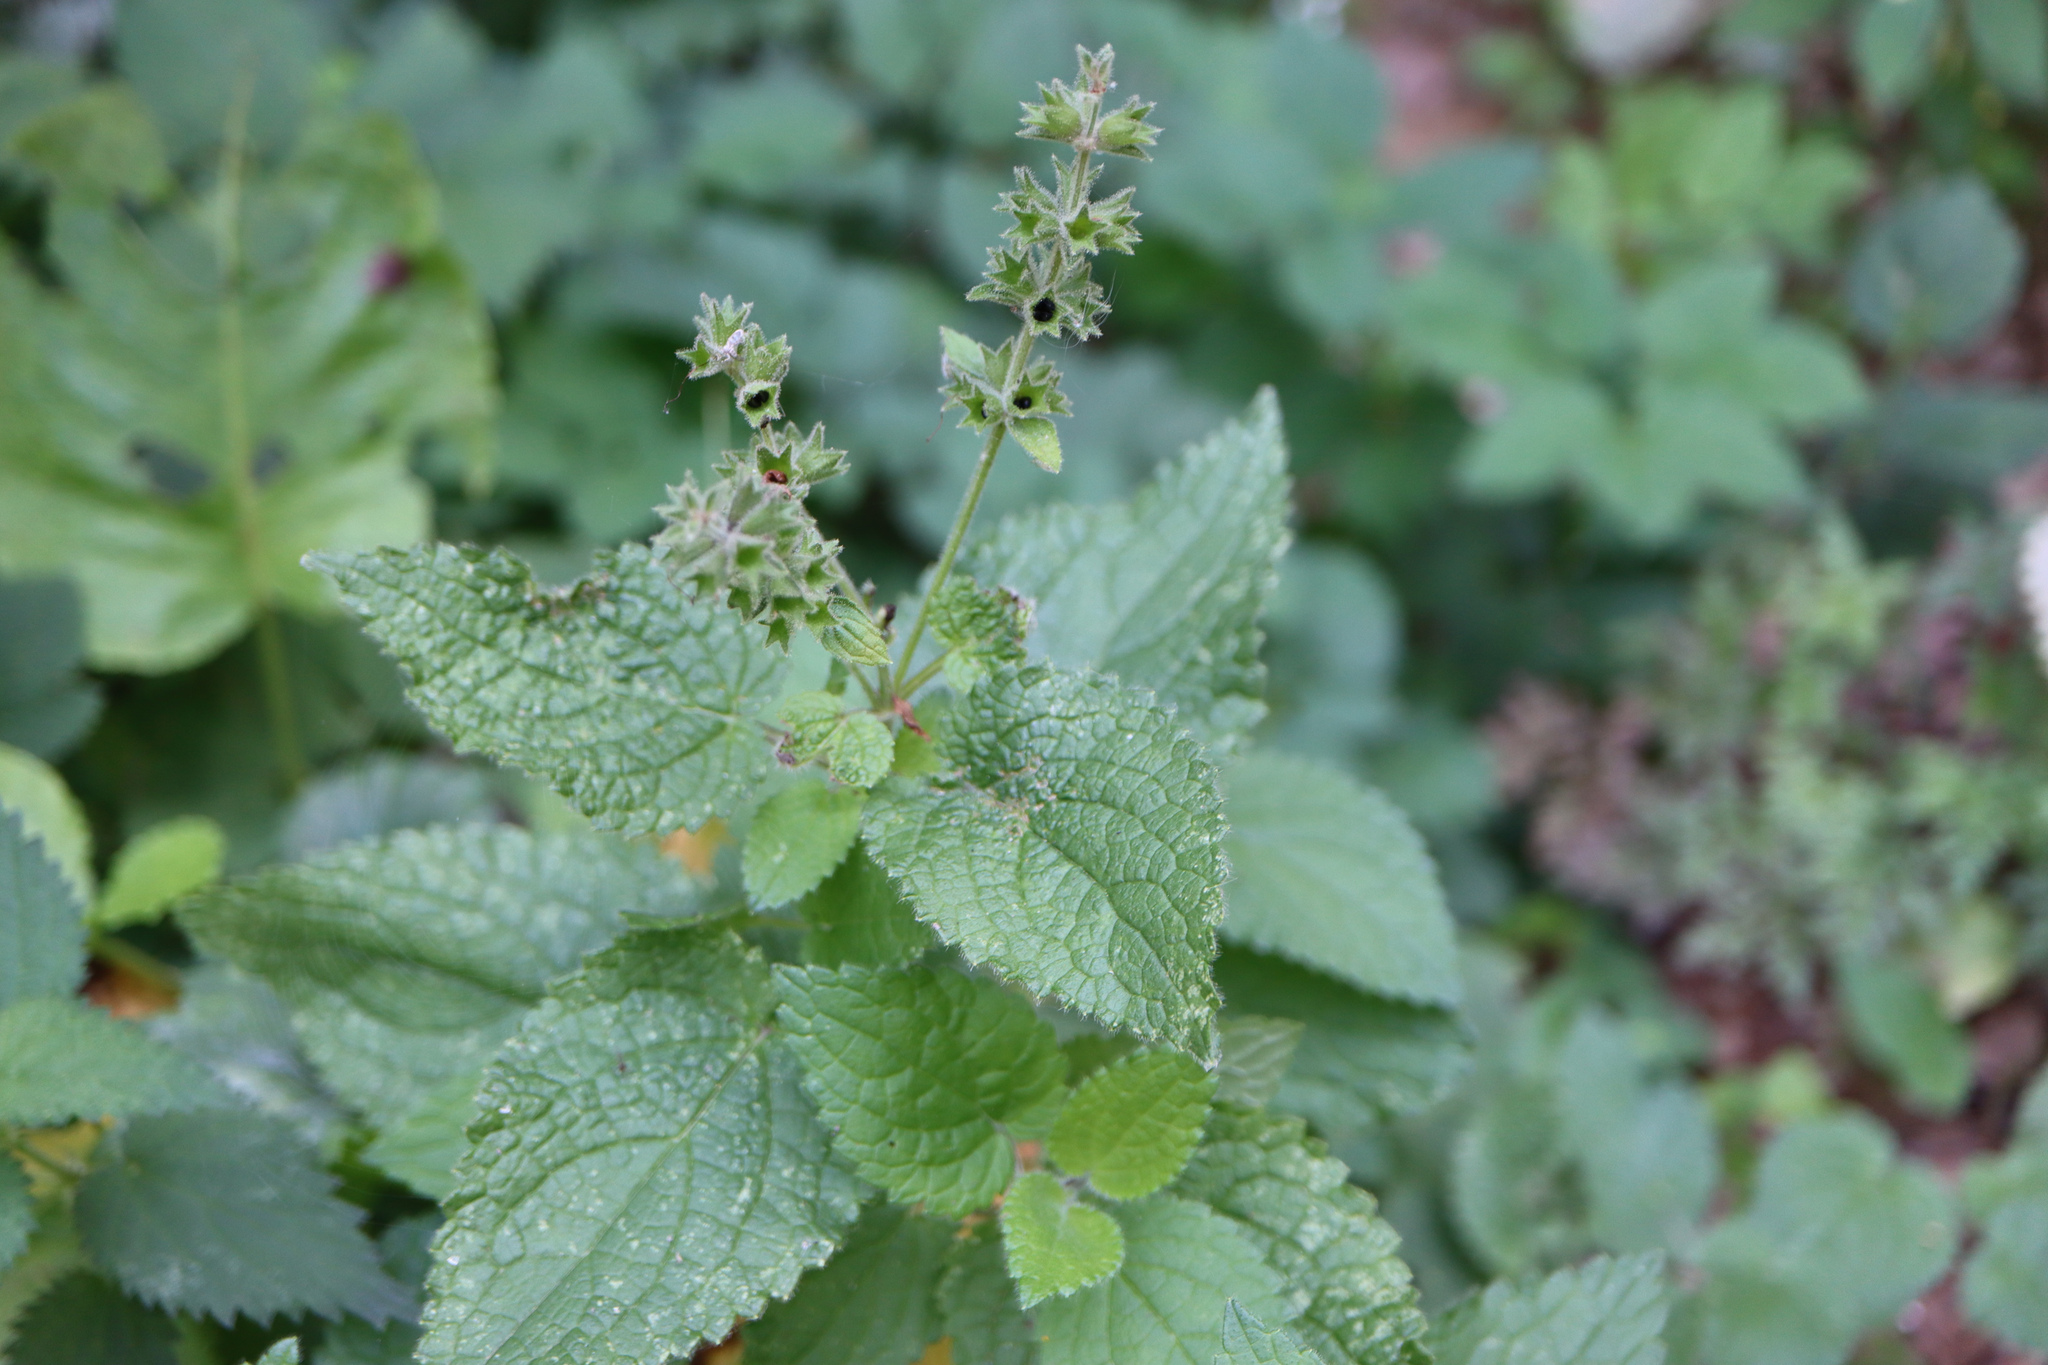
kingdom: Plantae
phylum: Tracheophyta
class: Magnoliopsida
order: Lamiales
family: Lamiaceae
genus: Stachys
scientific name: Stachys sylvatica
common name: Hedge woundwort
